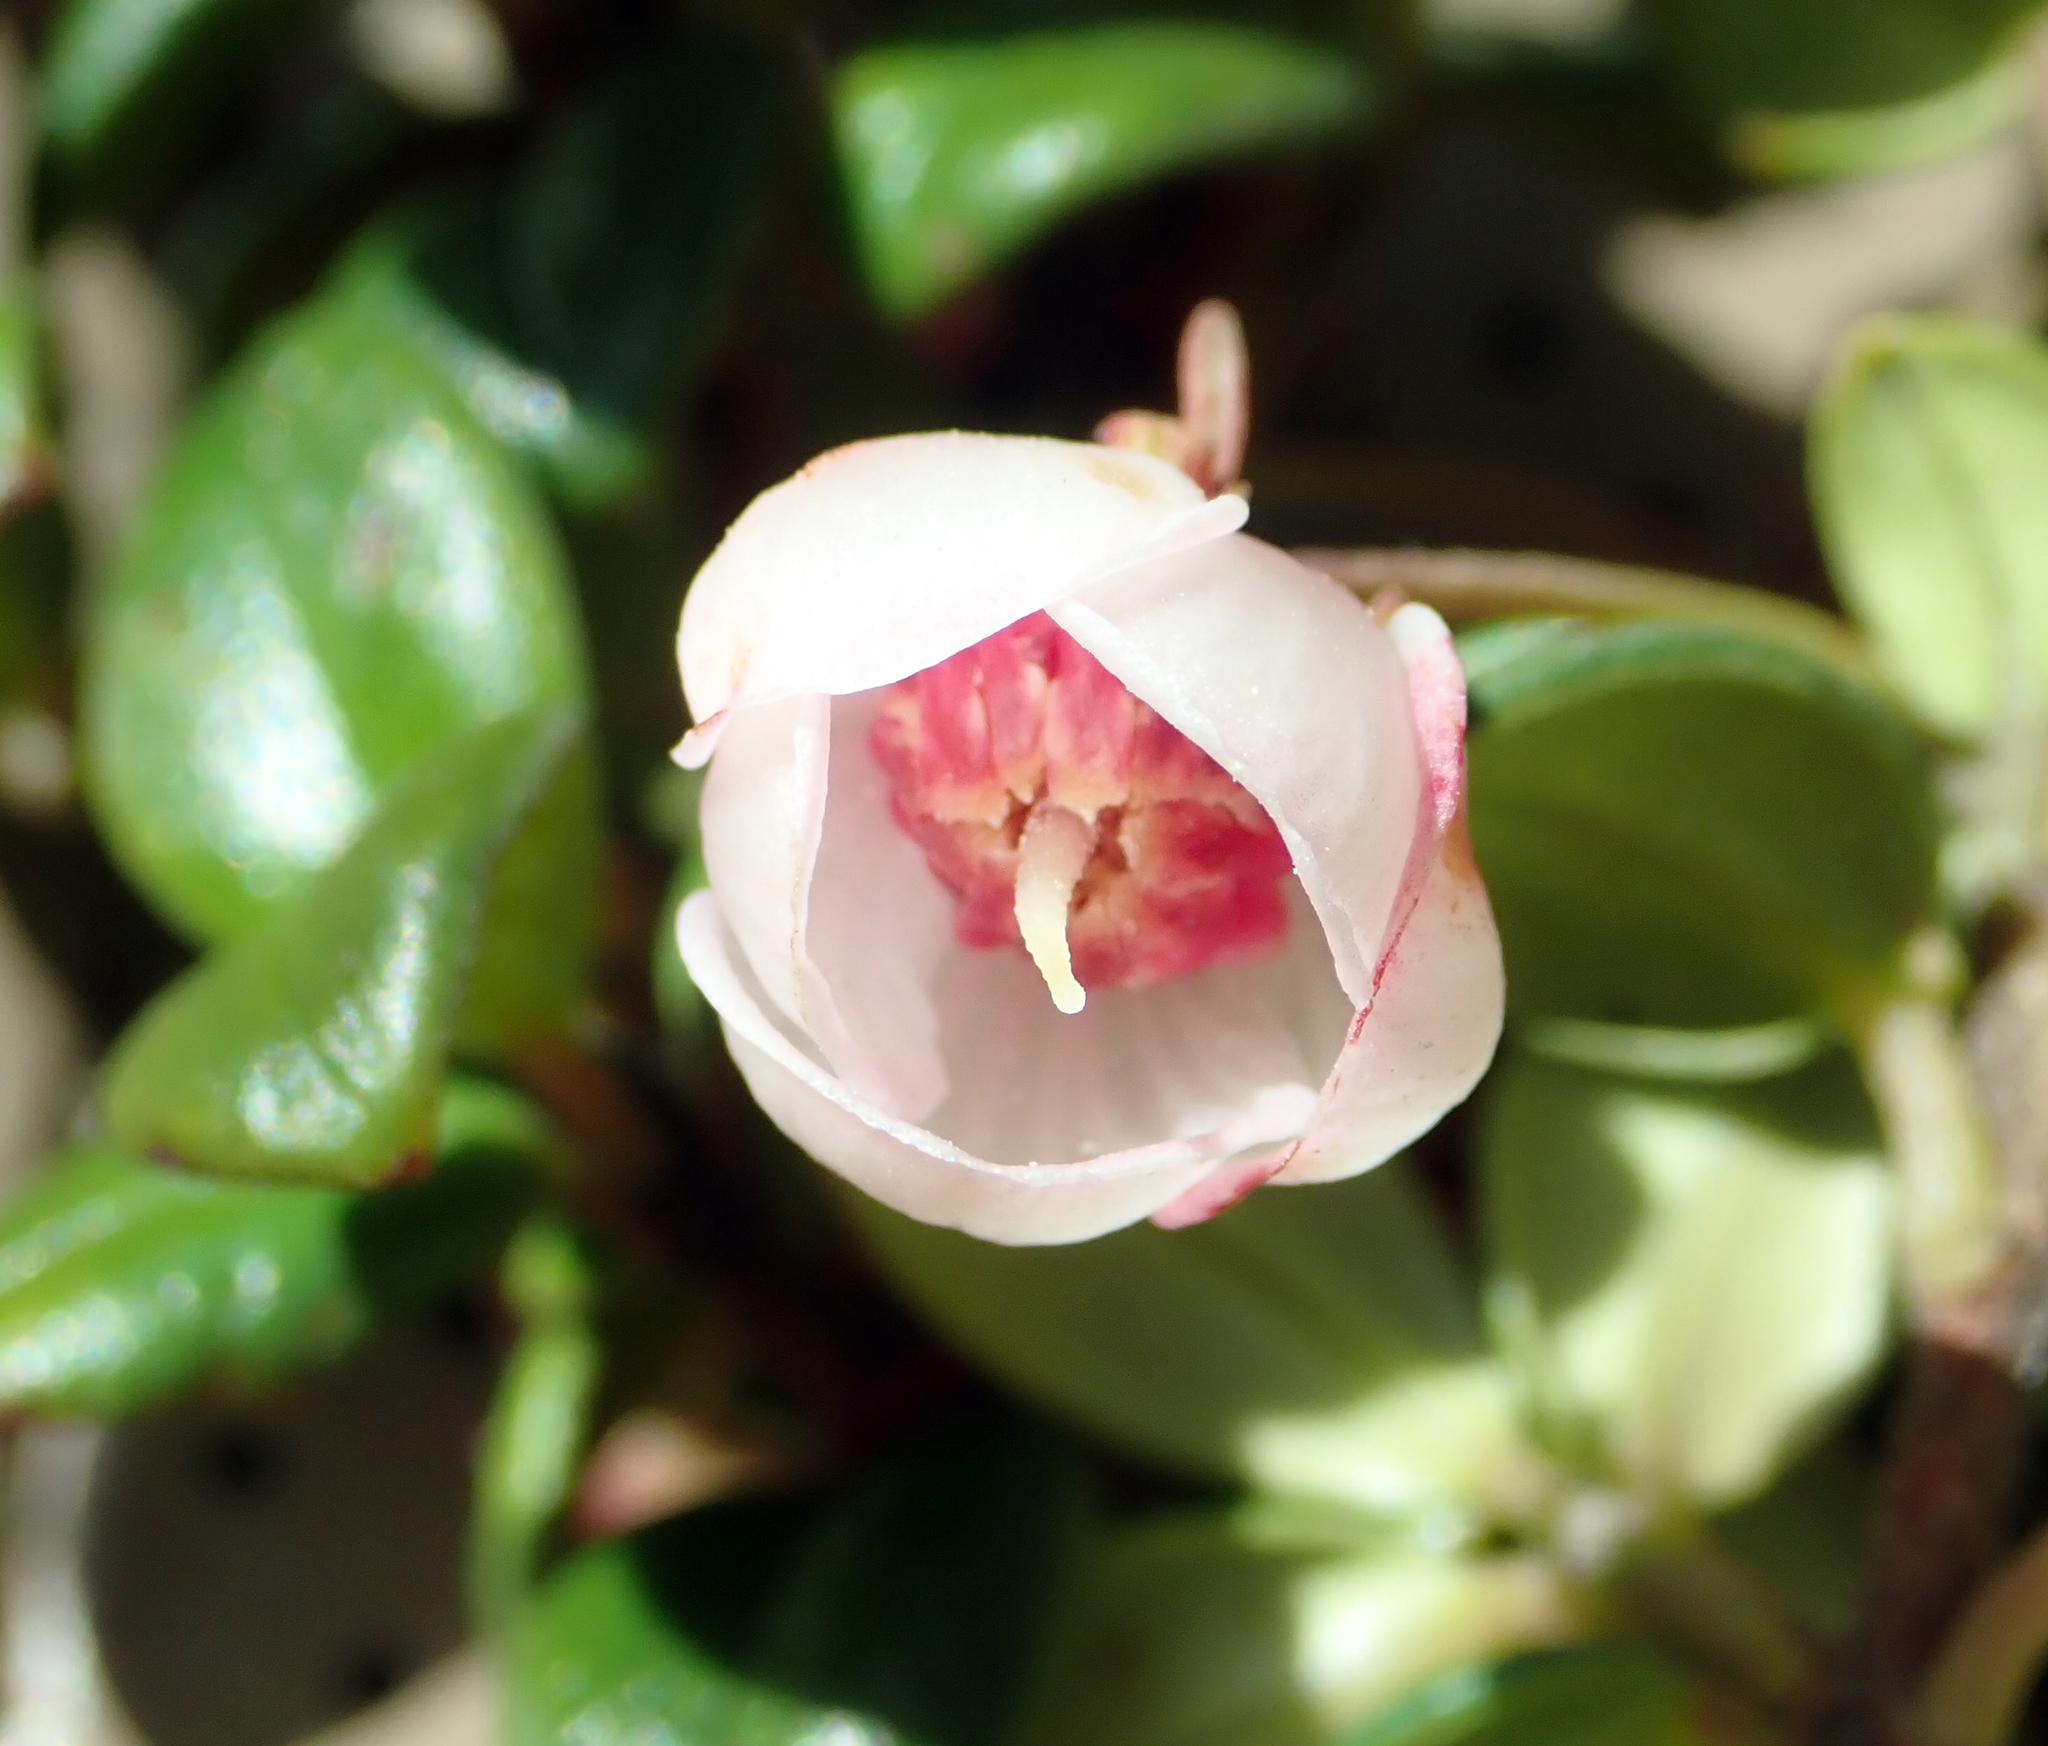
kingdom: Plantae
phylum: Tracheophyta
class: Magnoliopsida
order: Myrtales
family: Myrtaceae
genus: Ugni
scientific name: Ugni molinae
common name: Chilean-guava
